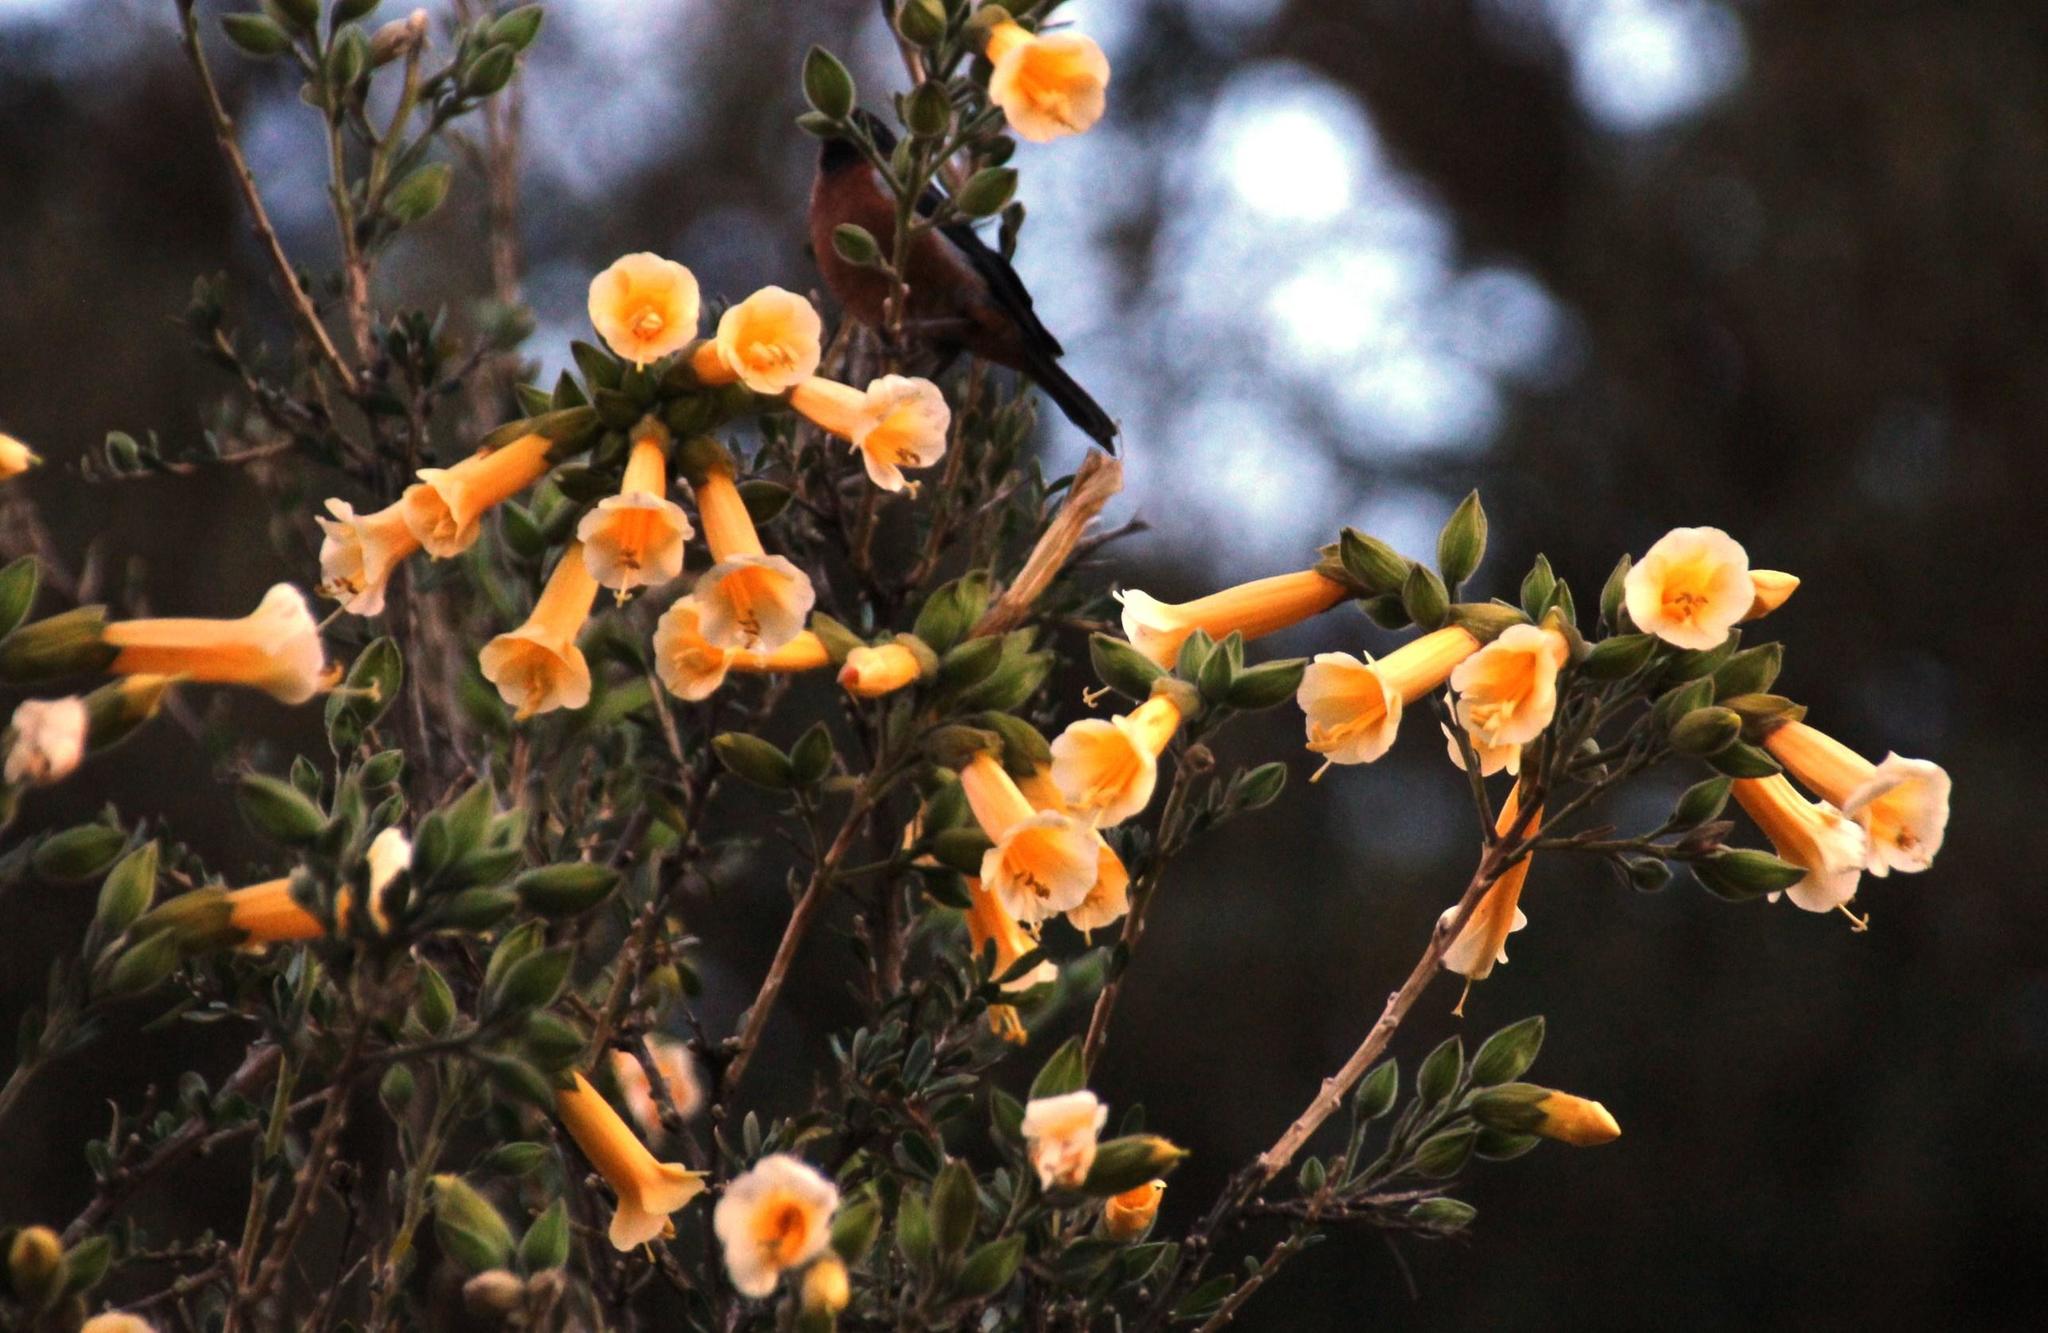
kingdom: Plantae
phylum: Tracheophyta
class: Magnoliopsida
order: Ericales
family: Polemoniaceae
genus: Cantua
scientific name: Cantua buxifolia
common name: Sacred-flower-of-the-incas
